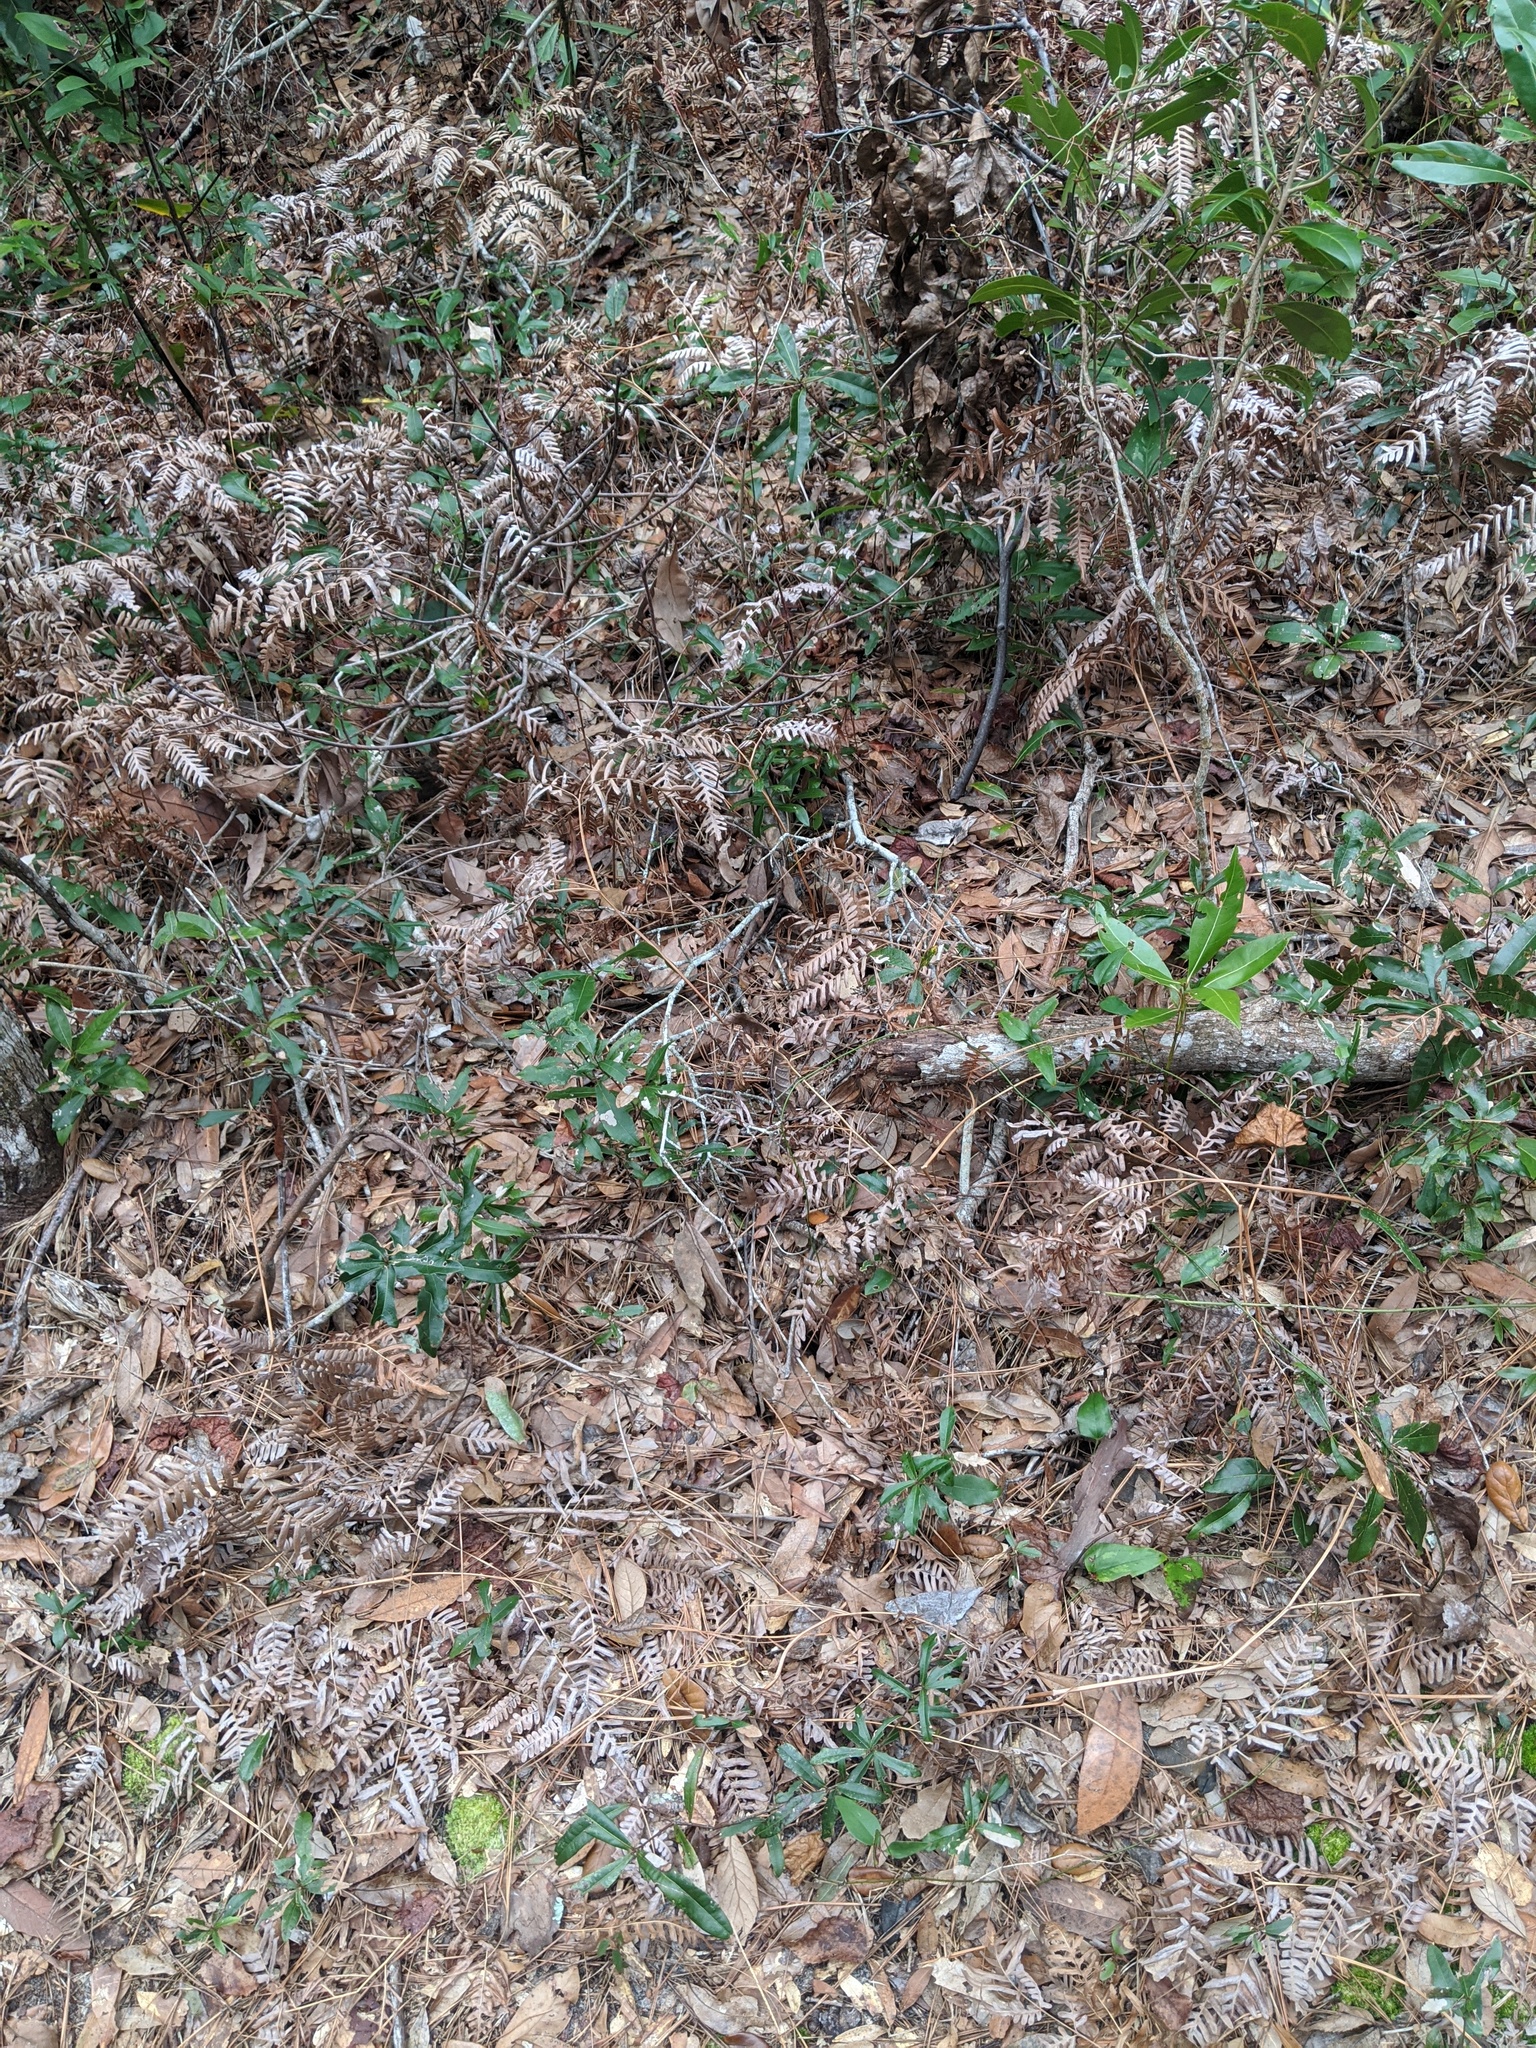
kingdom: Plantae
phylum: Tracheophyta
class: Polypodiopsida
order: Polypodiales
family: Dennstaedtiaceae
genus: Pteridium
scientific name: Pteridium aquilinum
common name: Bracken
